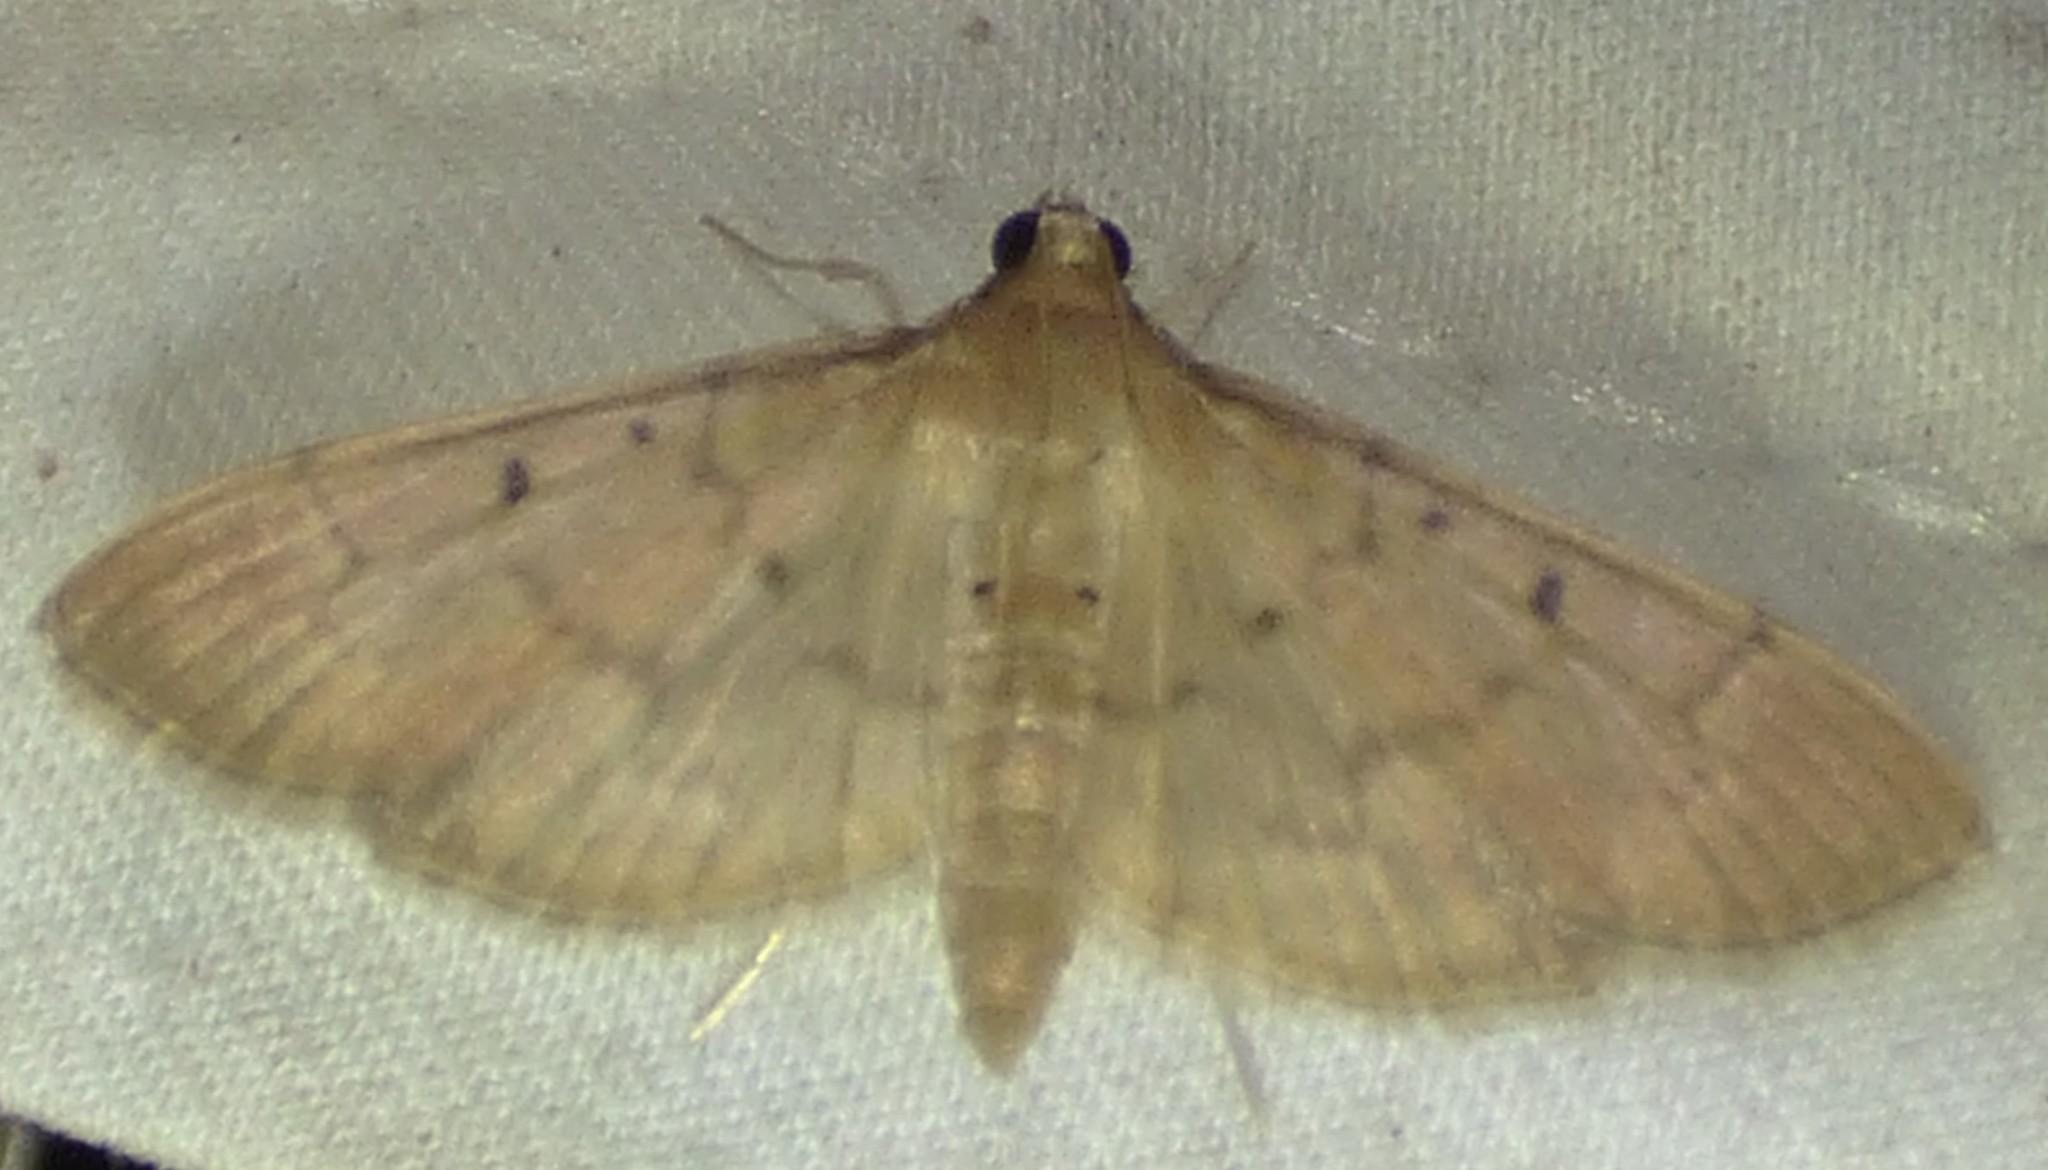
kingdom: Animalia
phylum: Arthropoda
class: Insecta
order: Lepidoptera
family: Crambidae
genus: Herpetogramma
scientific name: Herpetogramma bipunctalis
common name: Southern beet webworm
